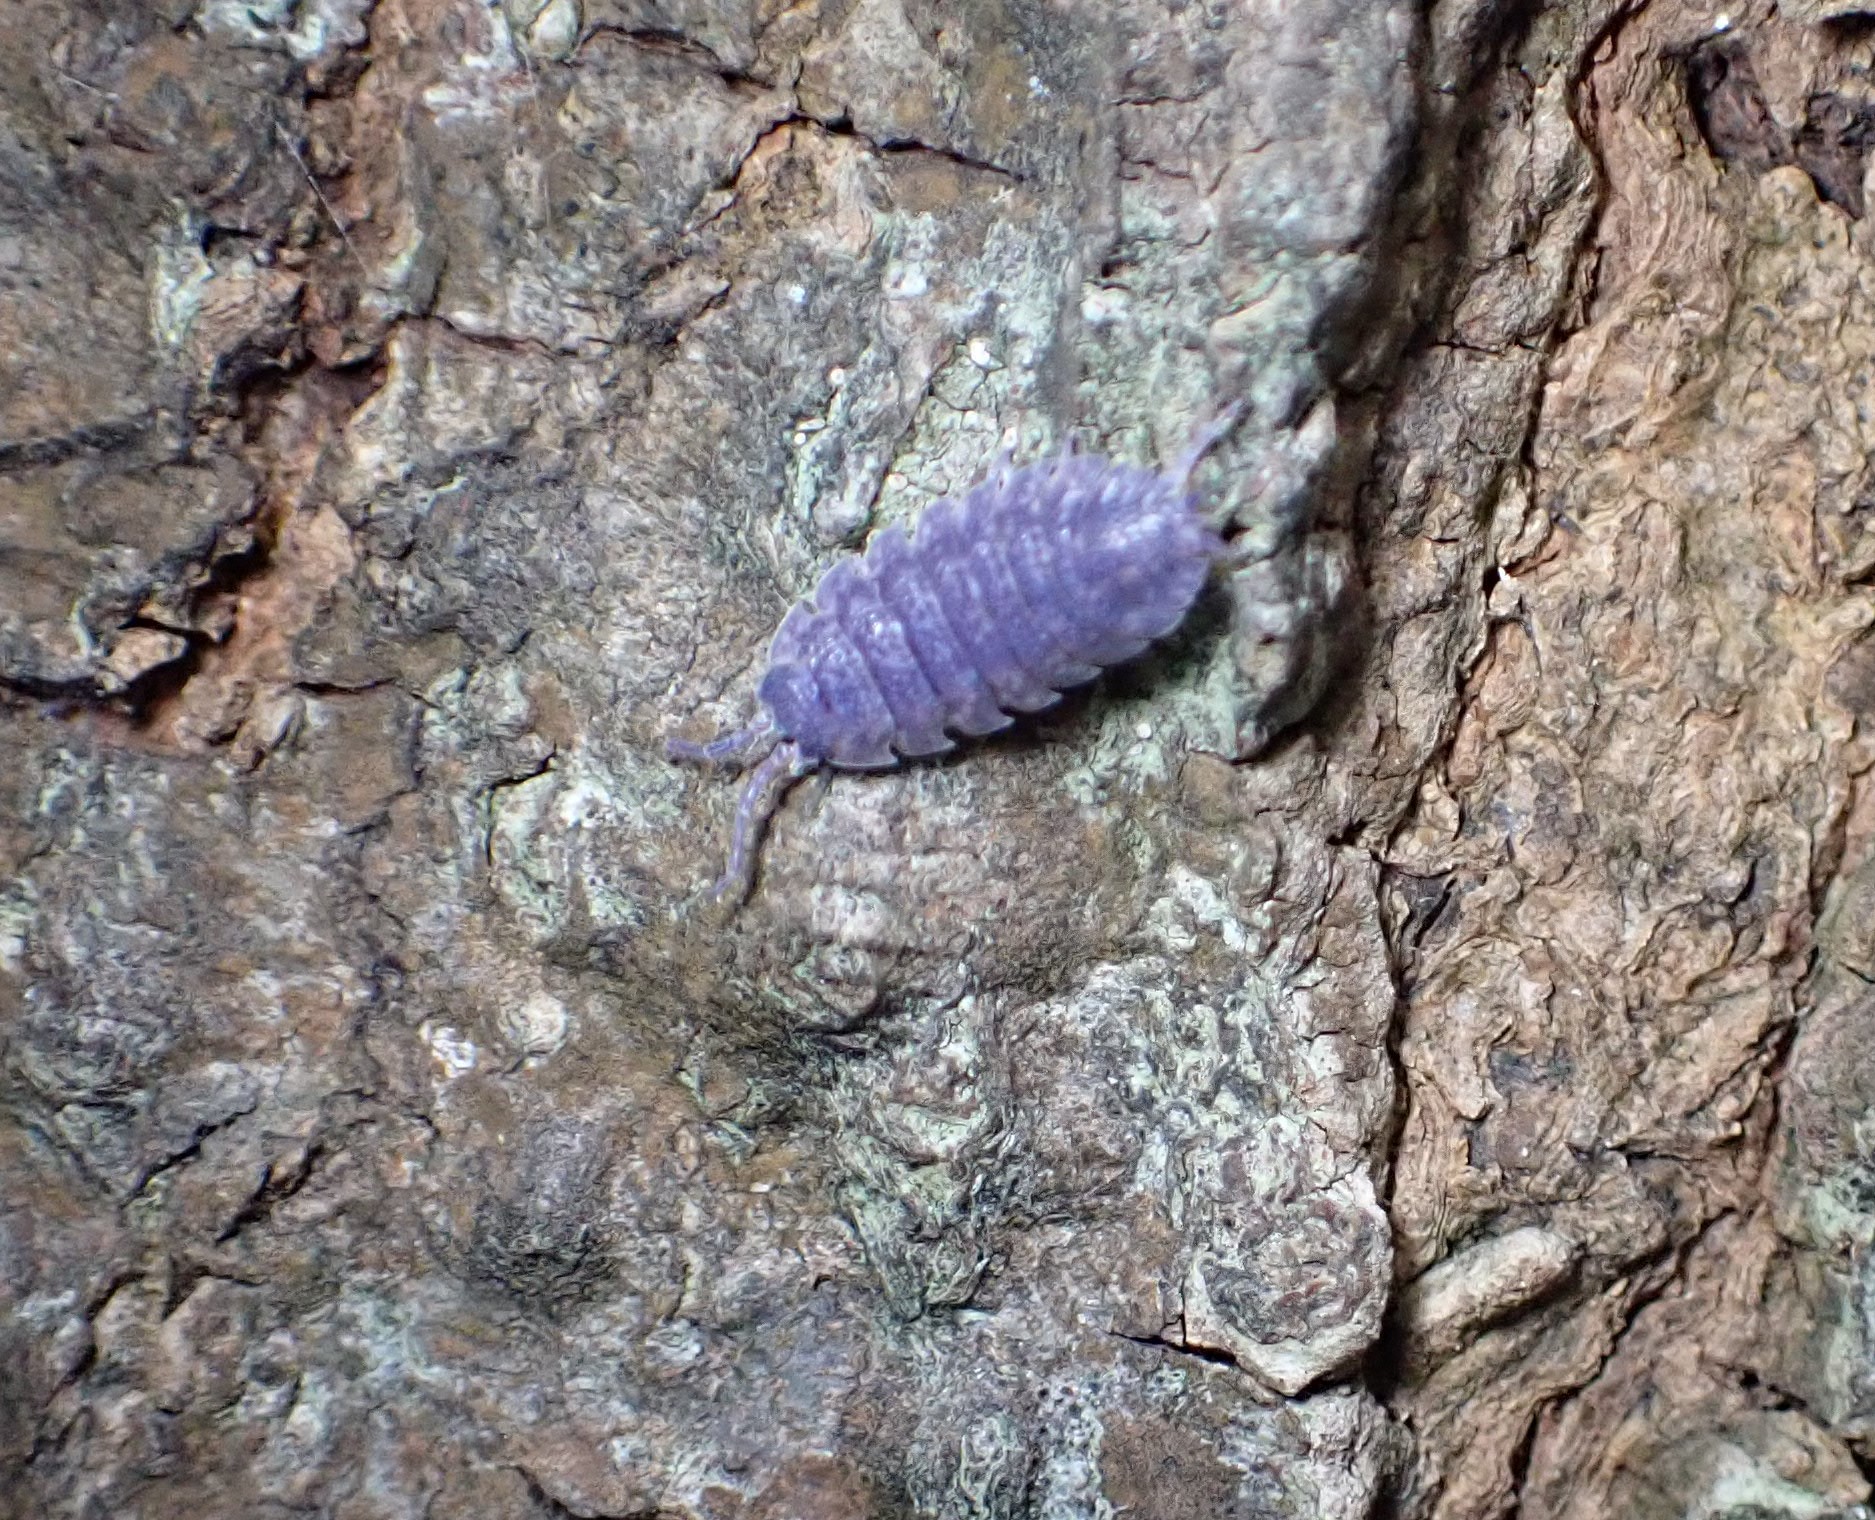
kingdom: Viruses
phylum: Nucleocytoviricota
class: Megaviricetes
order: Pimascovirales
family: Iridoviridae
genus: Iridovirus
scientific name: Iridovirus Invertebrate iridescent virus 31
